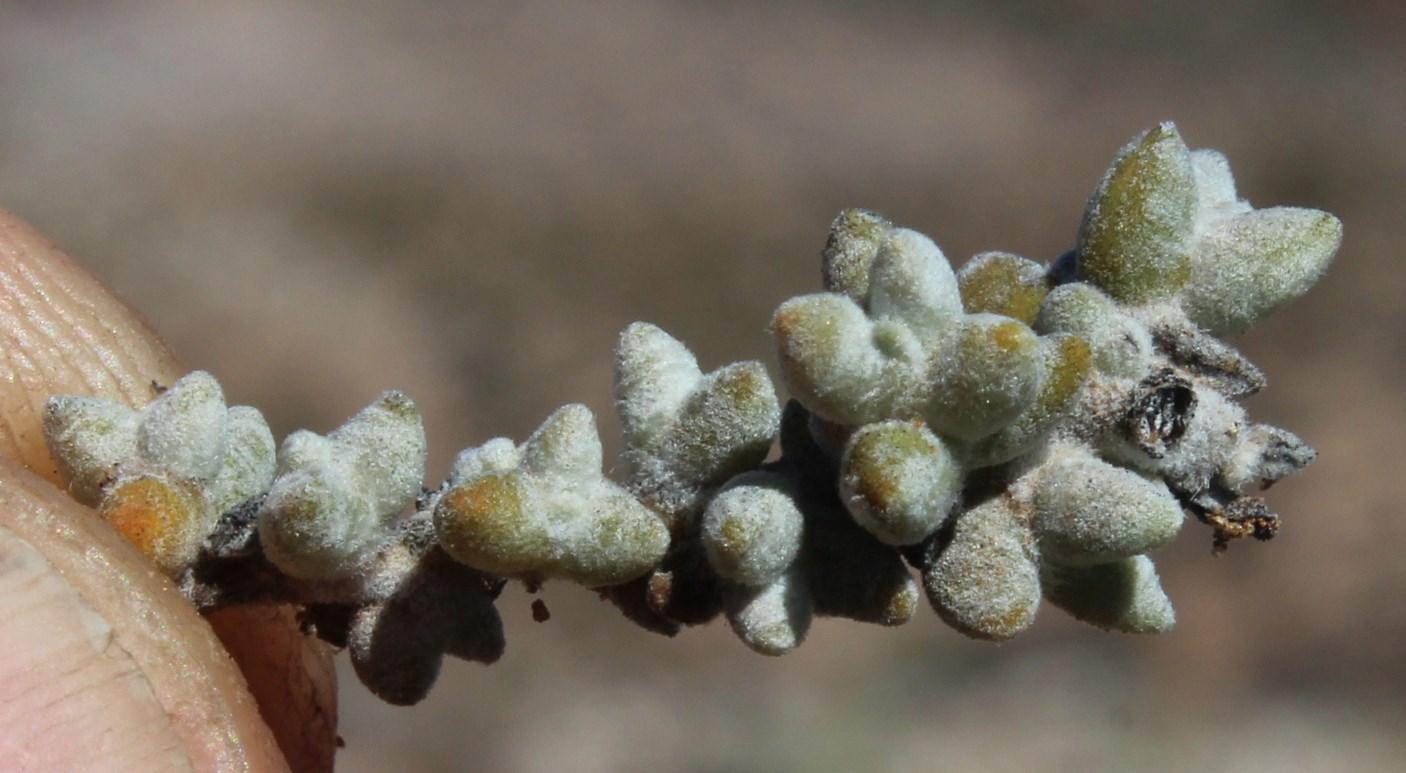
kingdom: Plantae
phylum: Tracheophyta
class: Magnoliopsida
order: Caryophyllales
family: Amaranthaceae
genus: Caroxylon
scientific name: Caroxylon zeyheri
